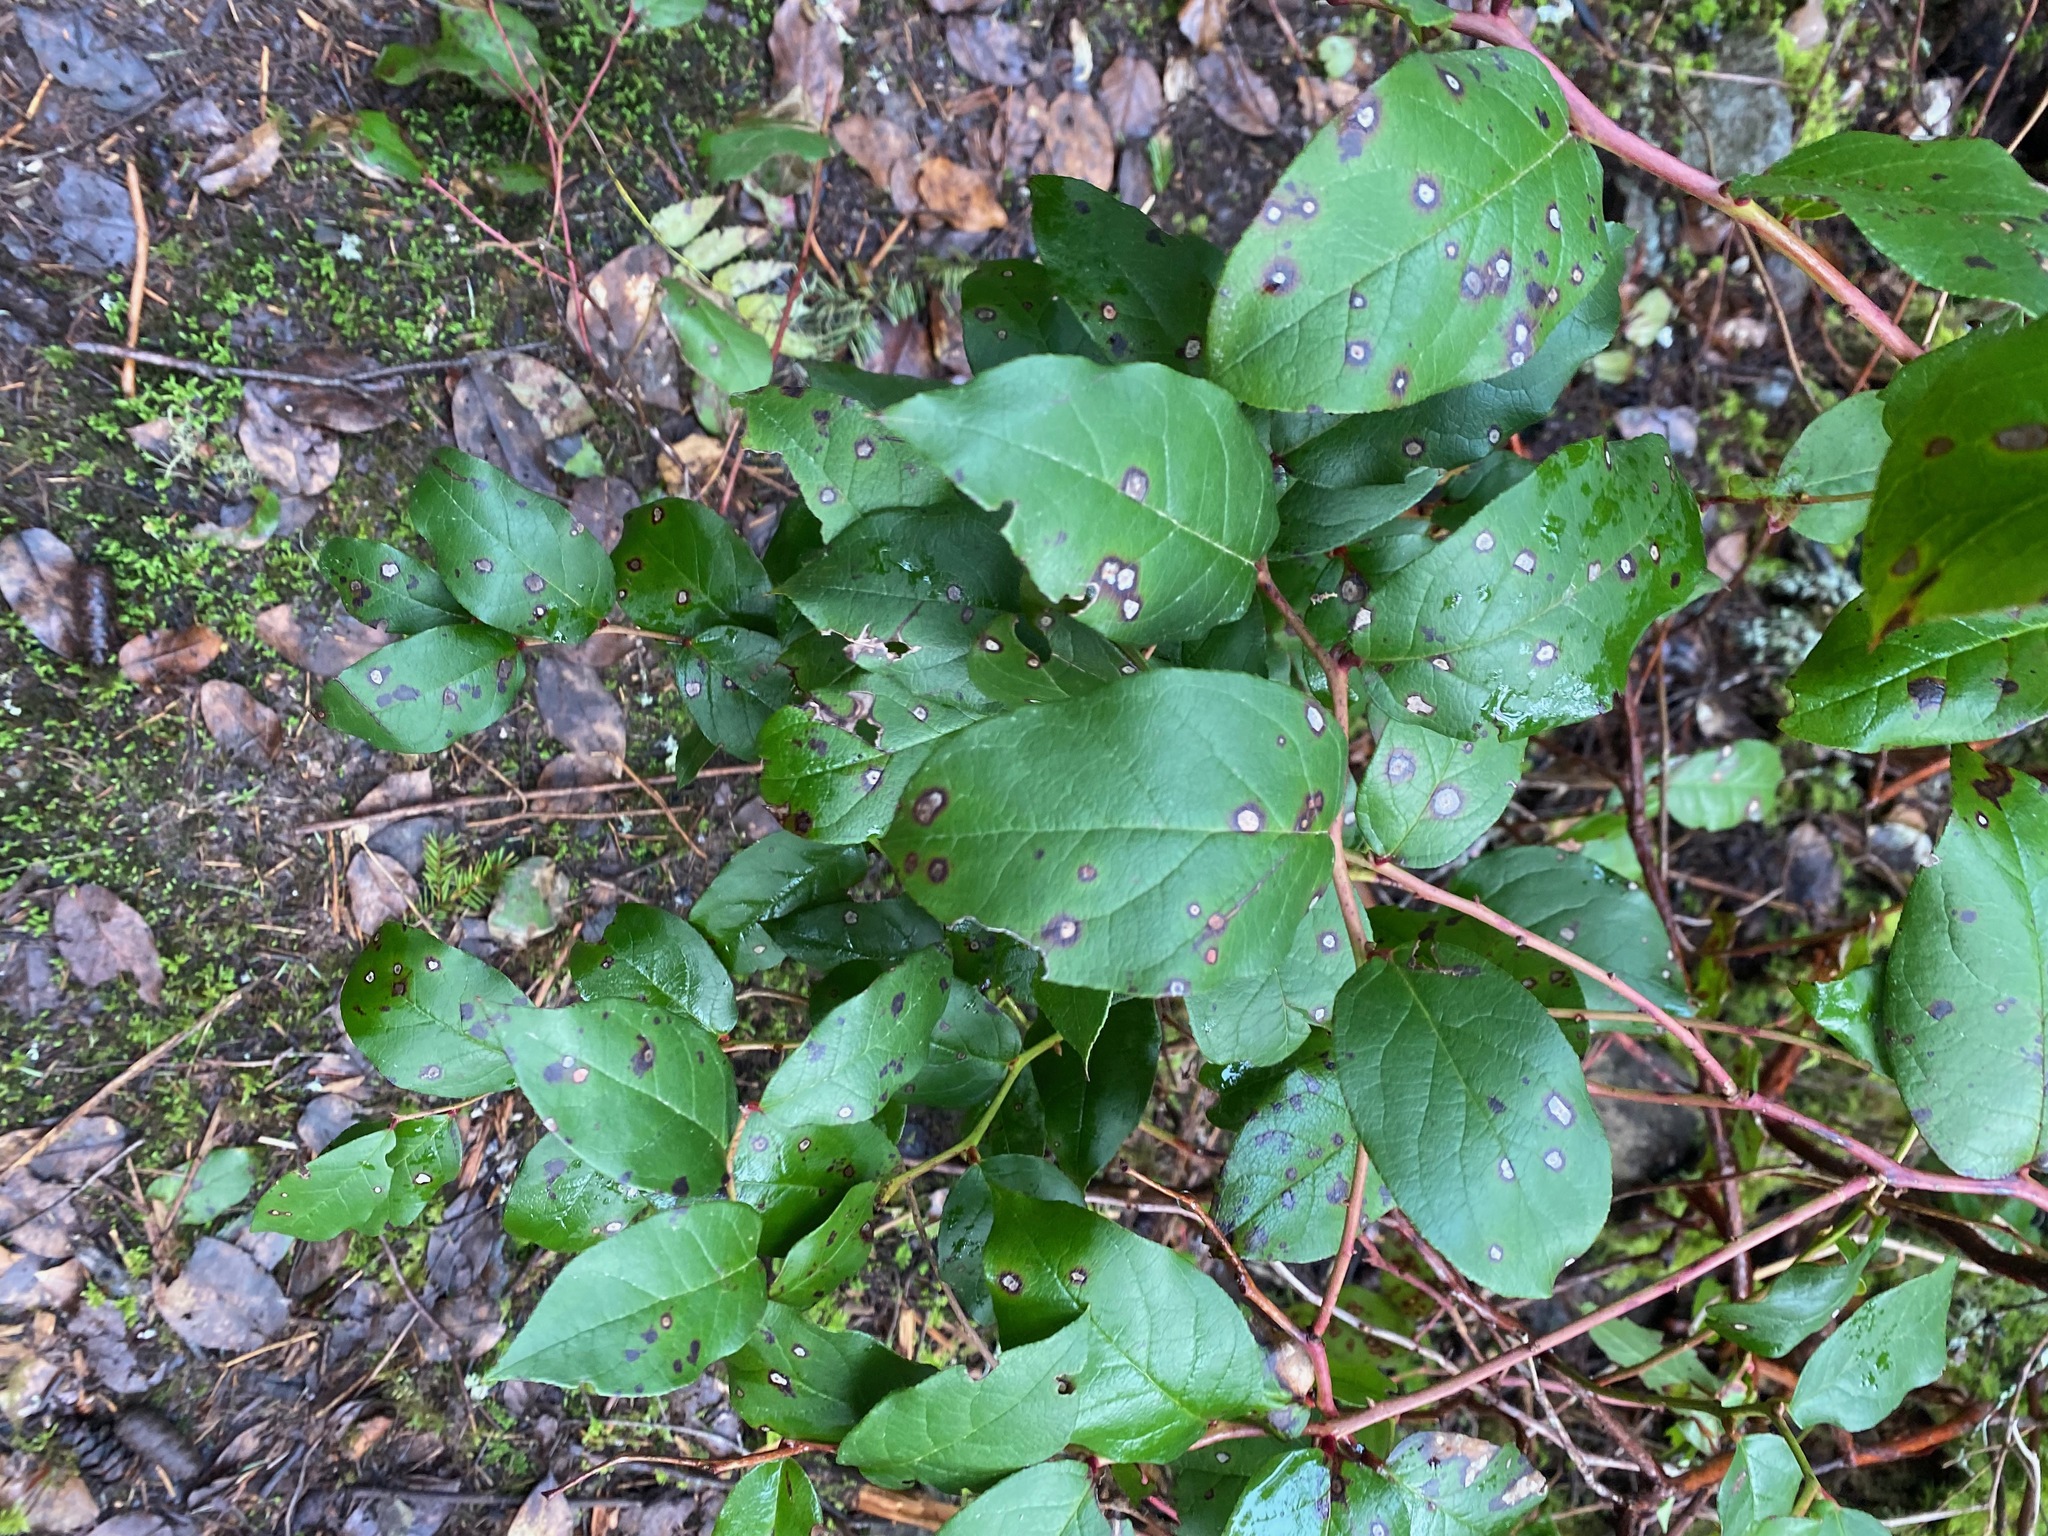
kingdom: Plantae
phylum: Tracheophyta
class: Magnoliopsida
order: Ericales
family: Ericaceae
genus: Gaultheria
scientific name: Gaultheria shallon
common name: Shallon
